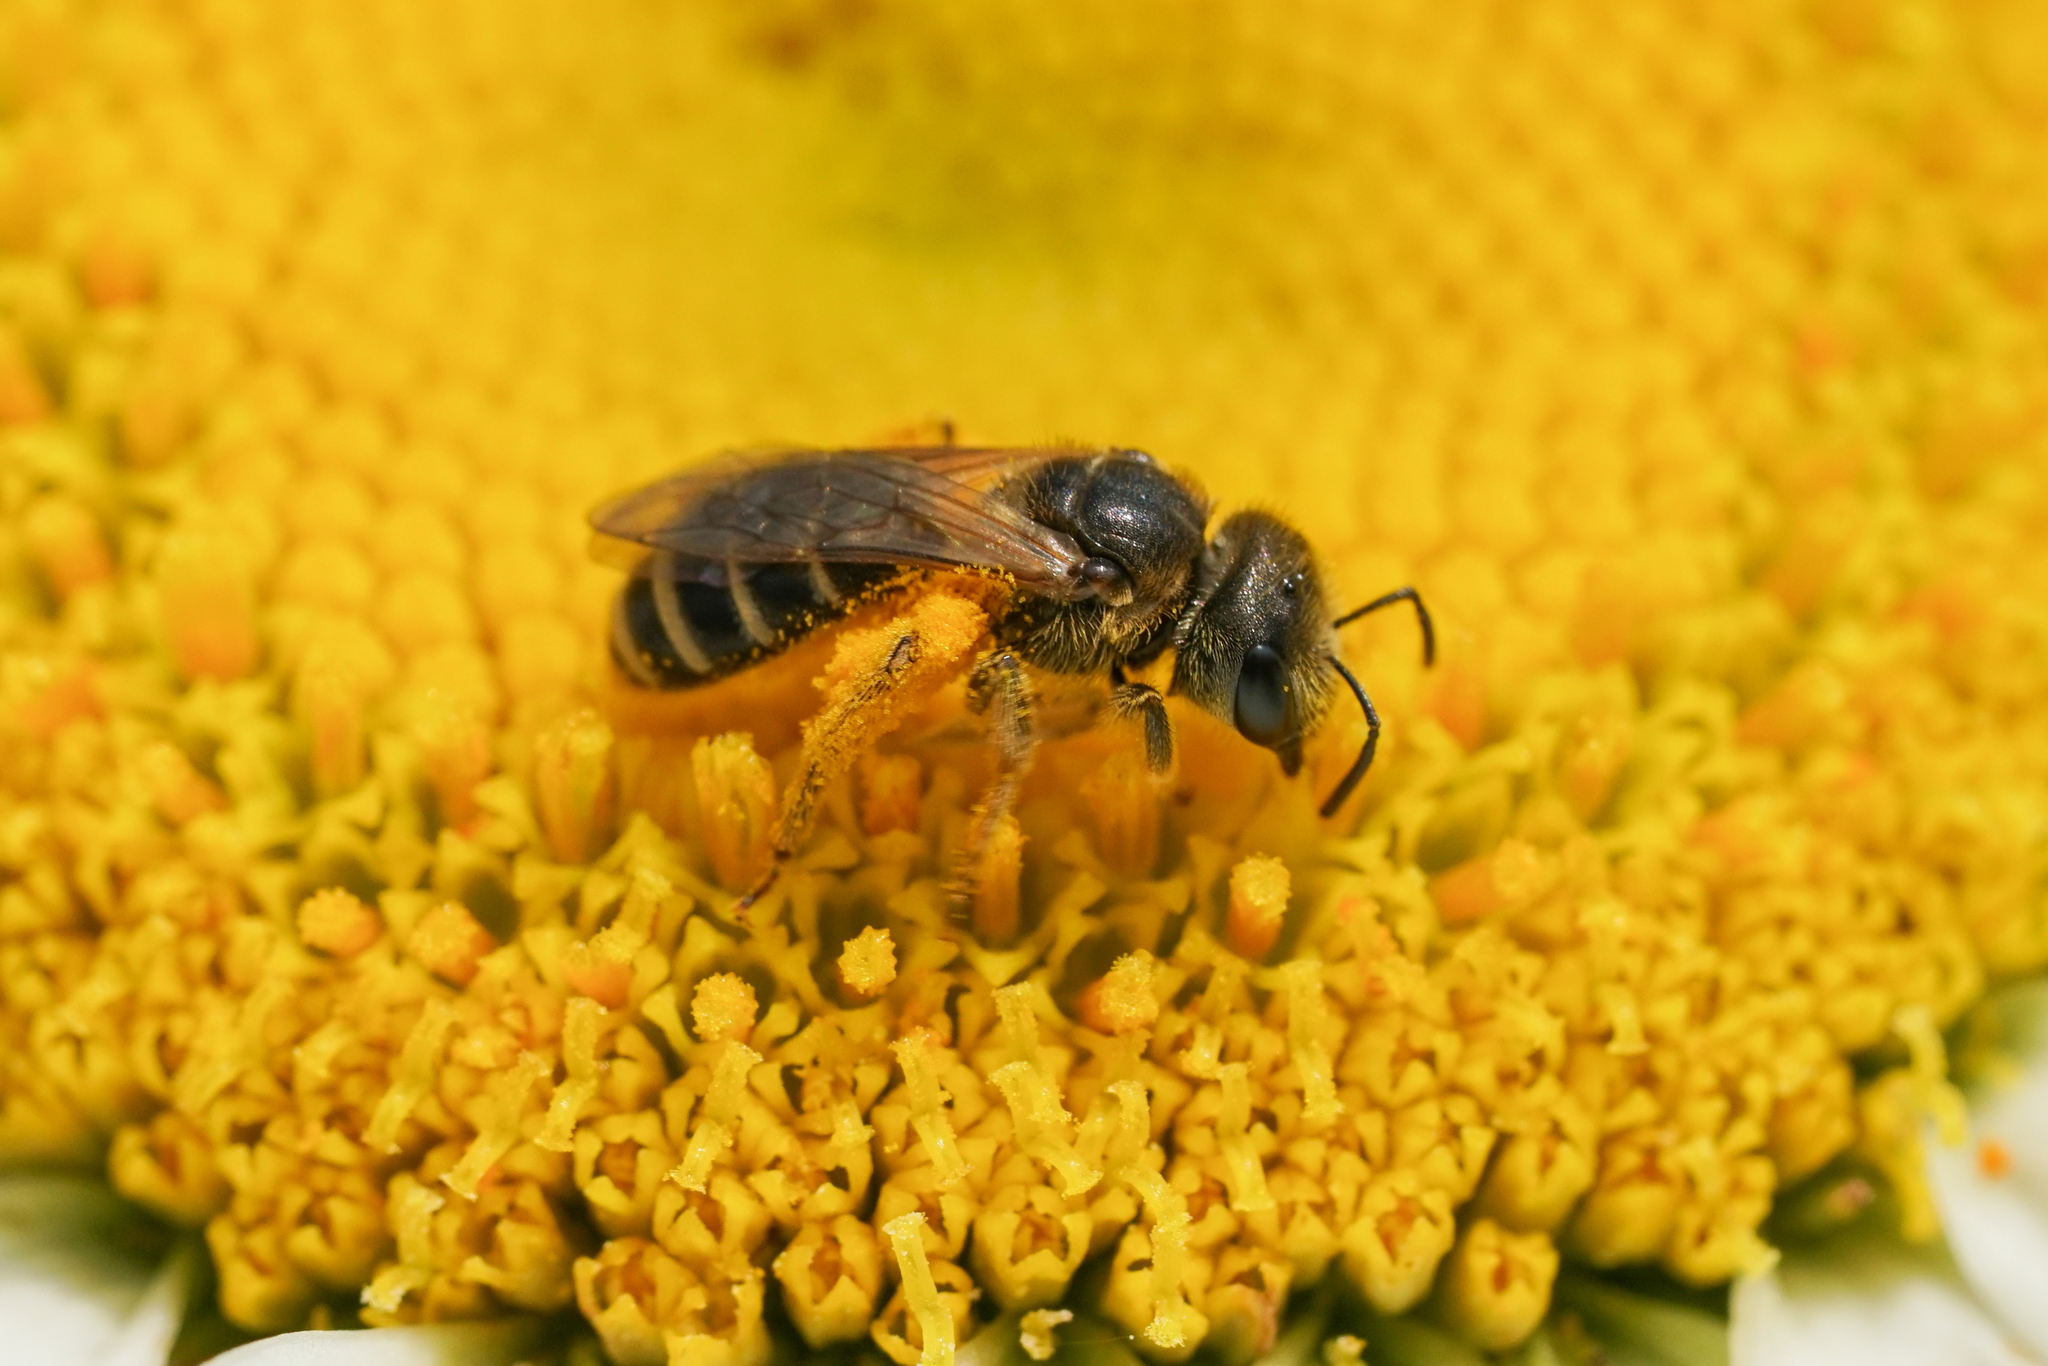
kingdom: Animalia
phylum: Arthropoda
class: Insecta
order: Hymenoptera
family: Halictidae
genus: Halictus
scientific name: Halictus ligatus
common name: Ligated furrow bee
